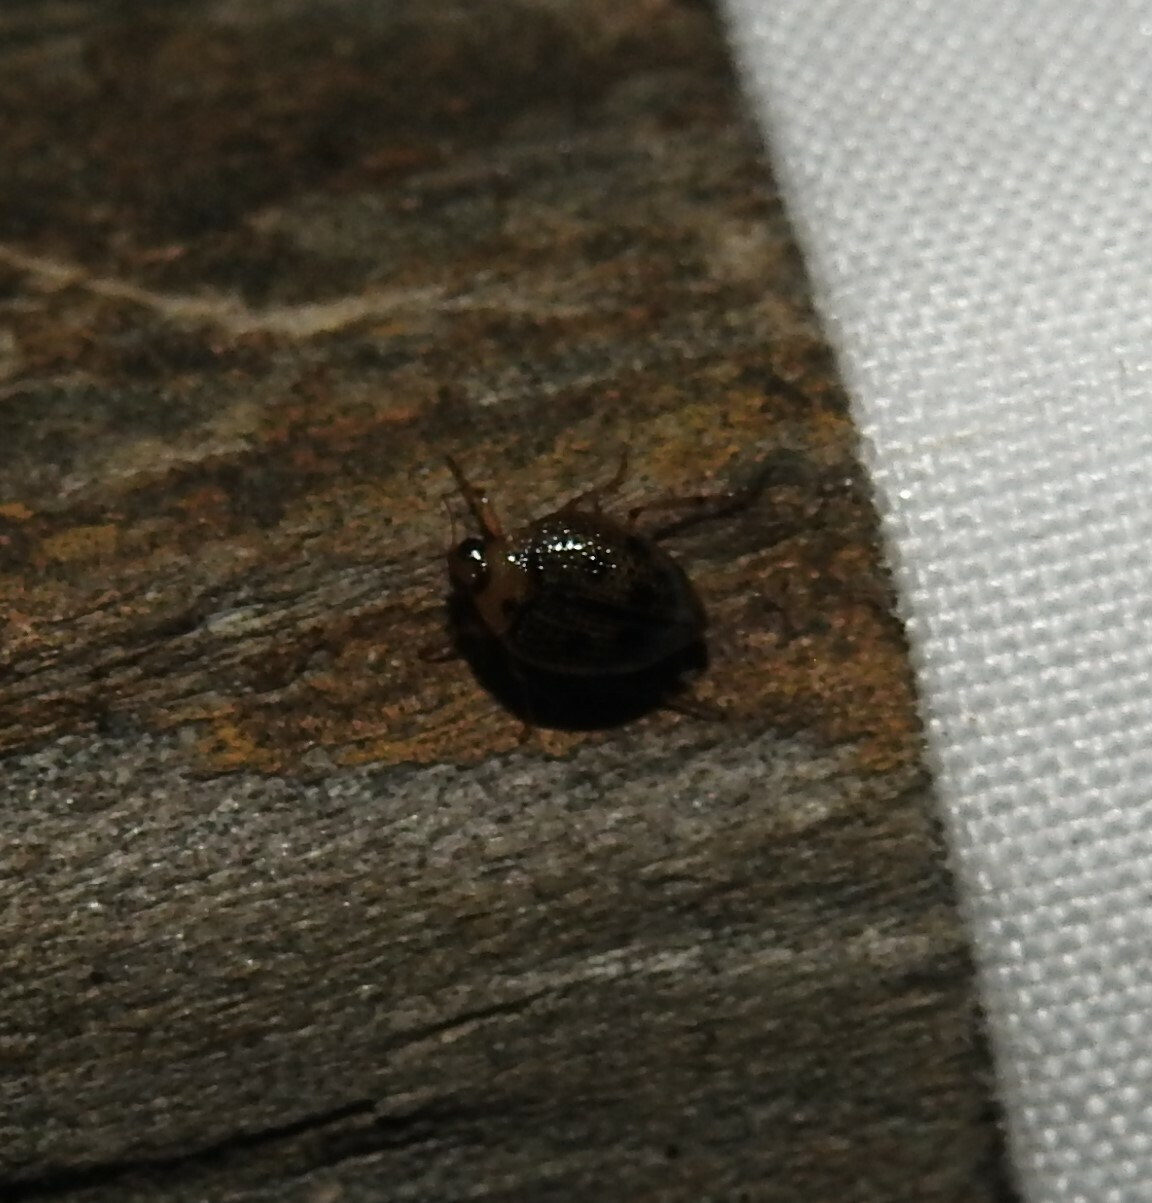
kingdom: Animalia
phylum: Arthropoda
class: Insecta
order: Coleoptera
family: Haliplidae
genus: Peltodytes
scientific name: Peltodytes edentulus
